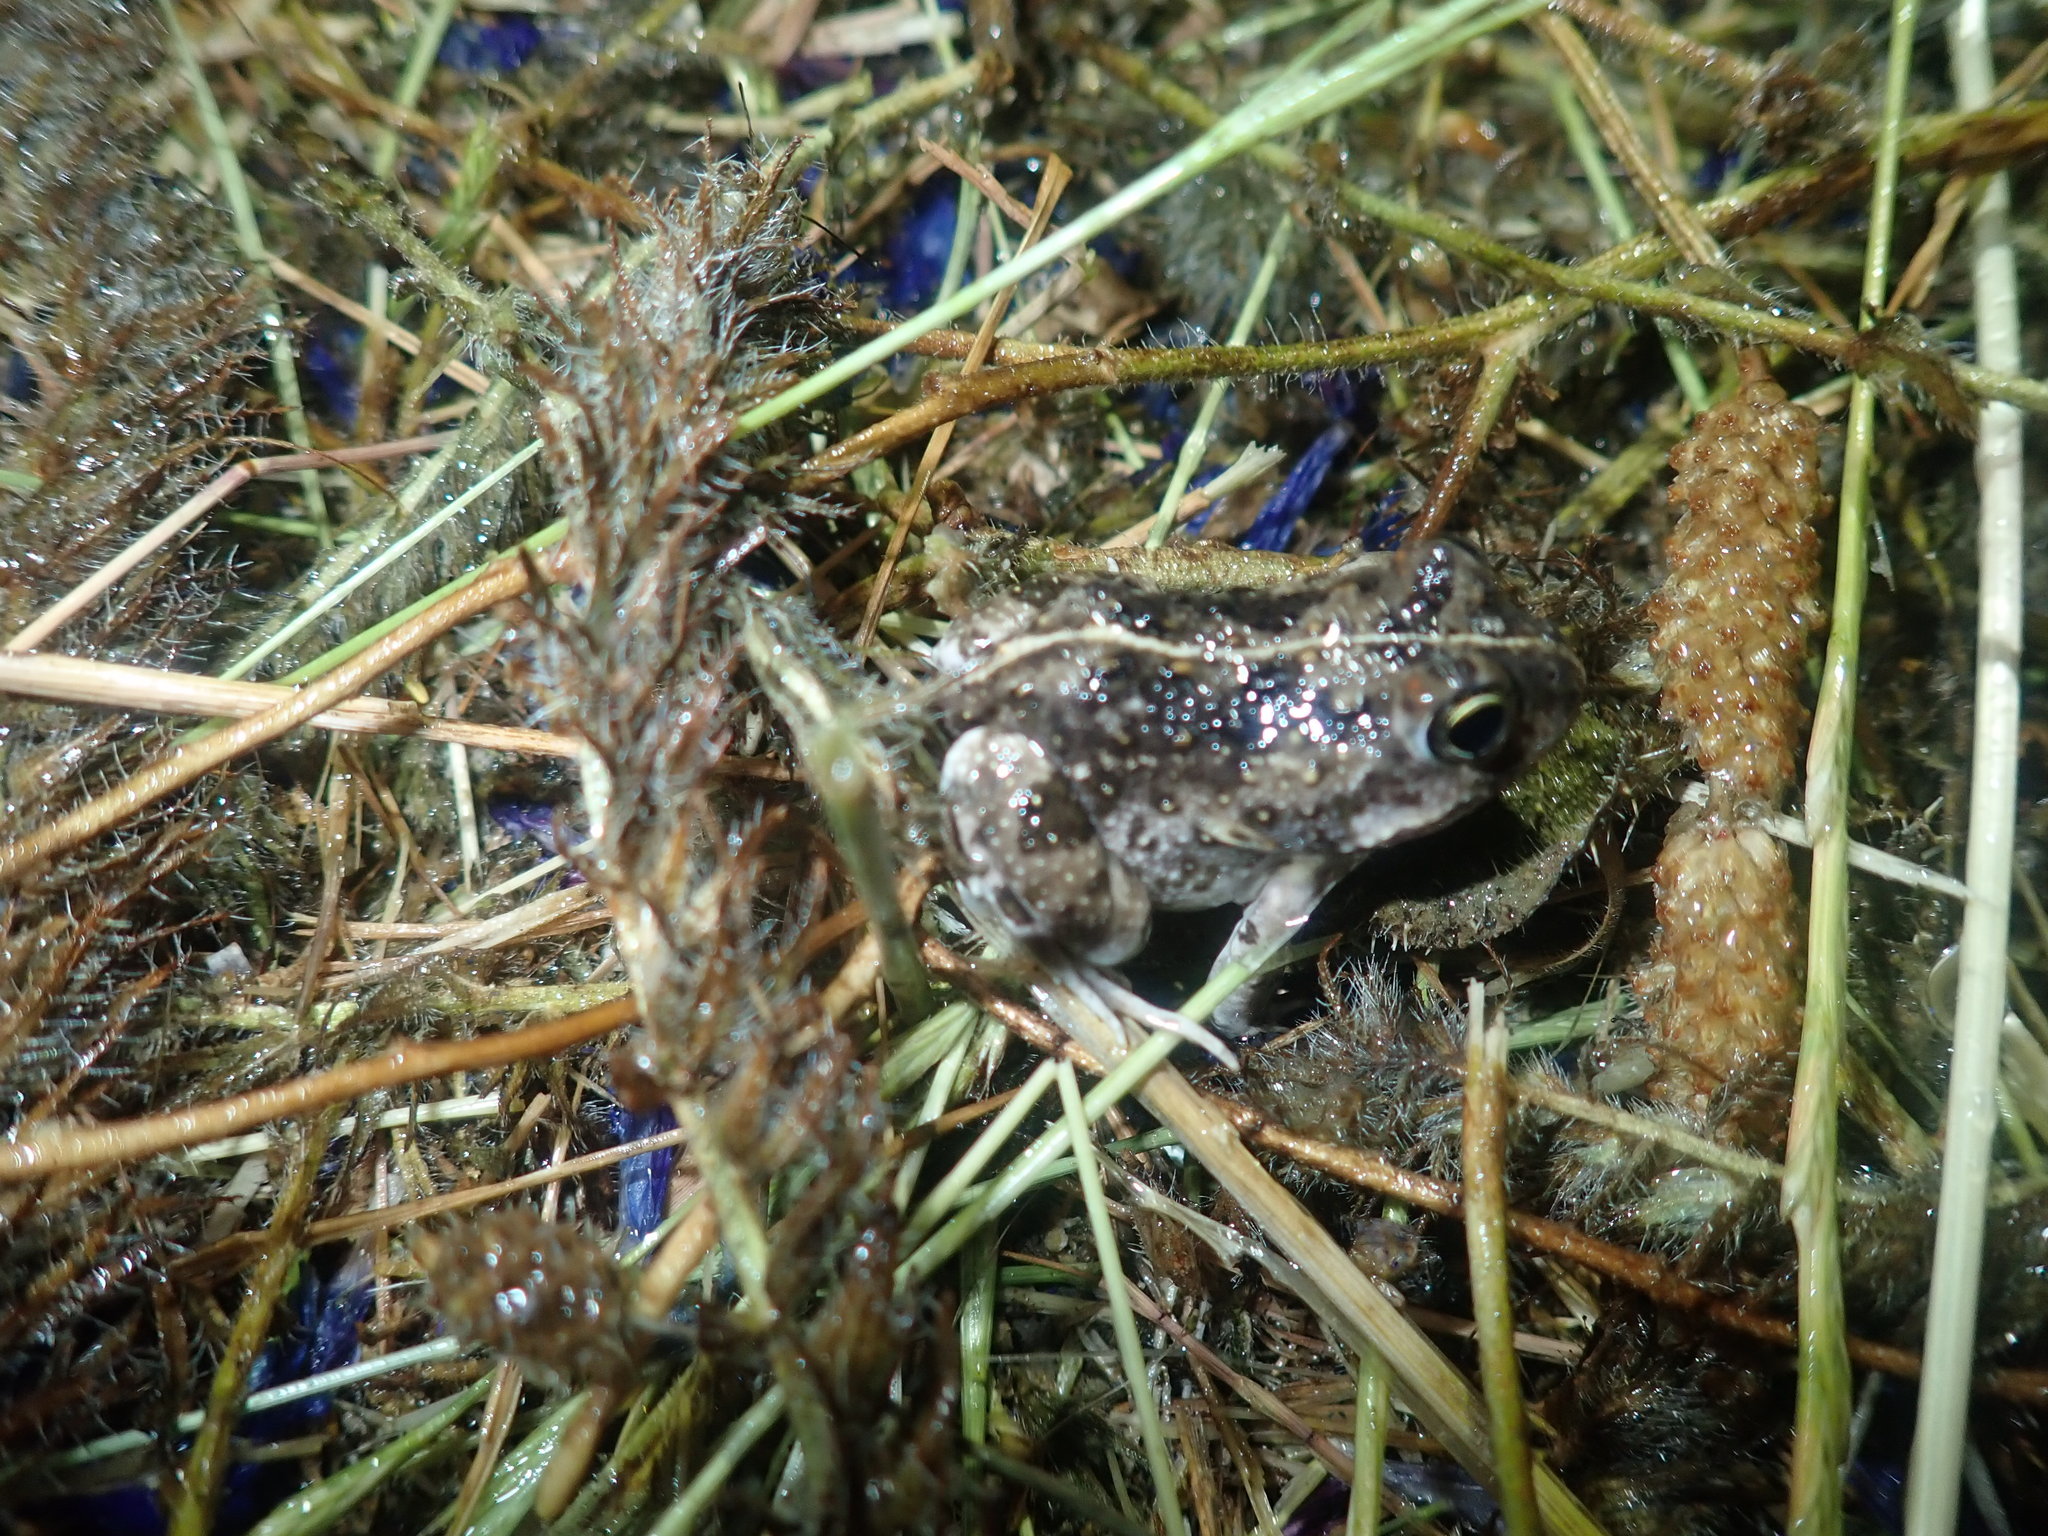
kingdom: Animalia
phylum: Chordata
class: Amphibia
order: Anura
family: Pyxicephalidae
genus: Tomopterna
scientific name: Tomopterna delalandii
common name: Delalande's burrowing bullfrog
